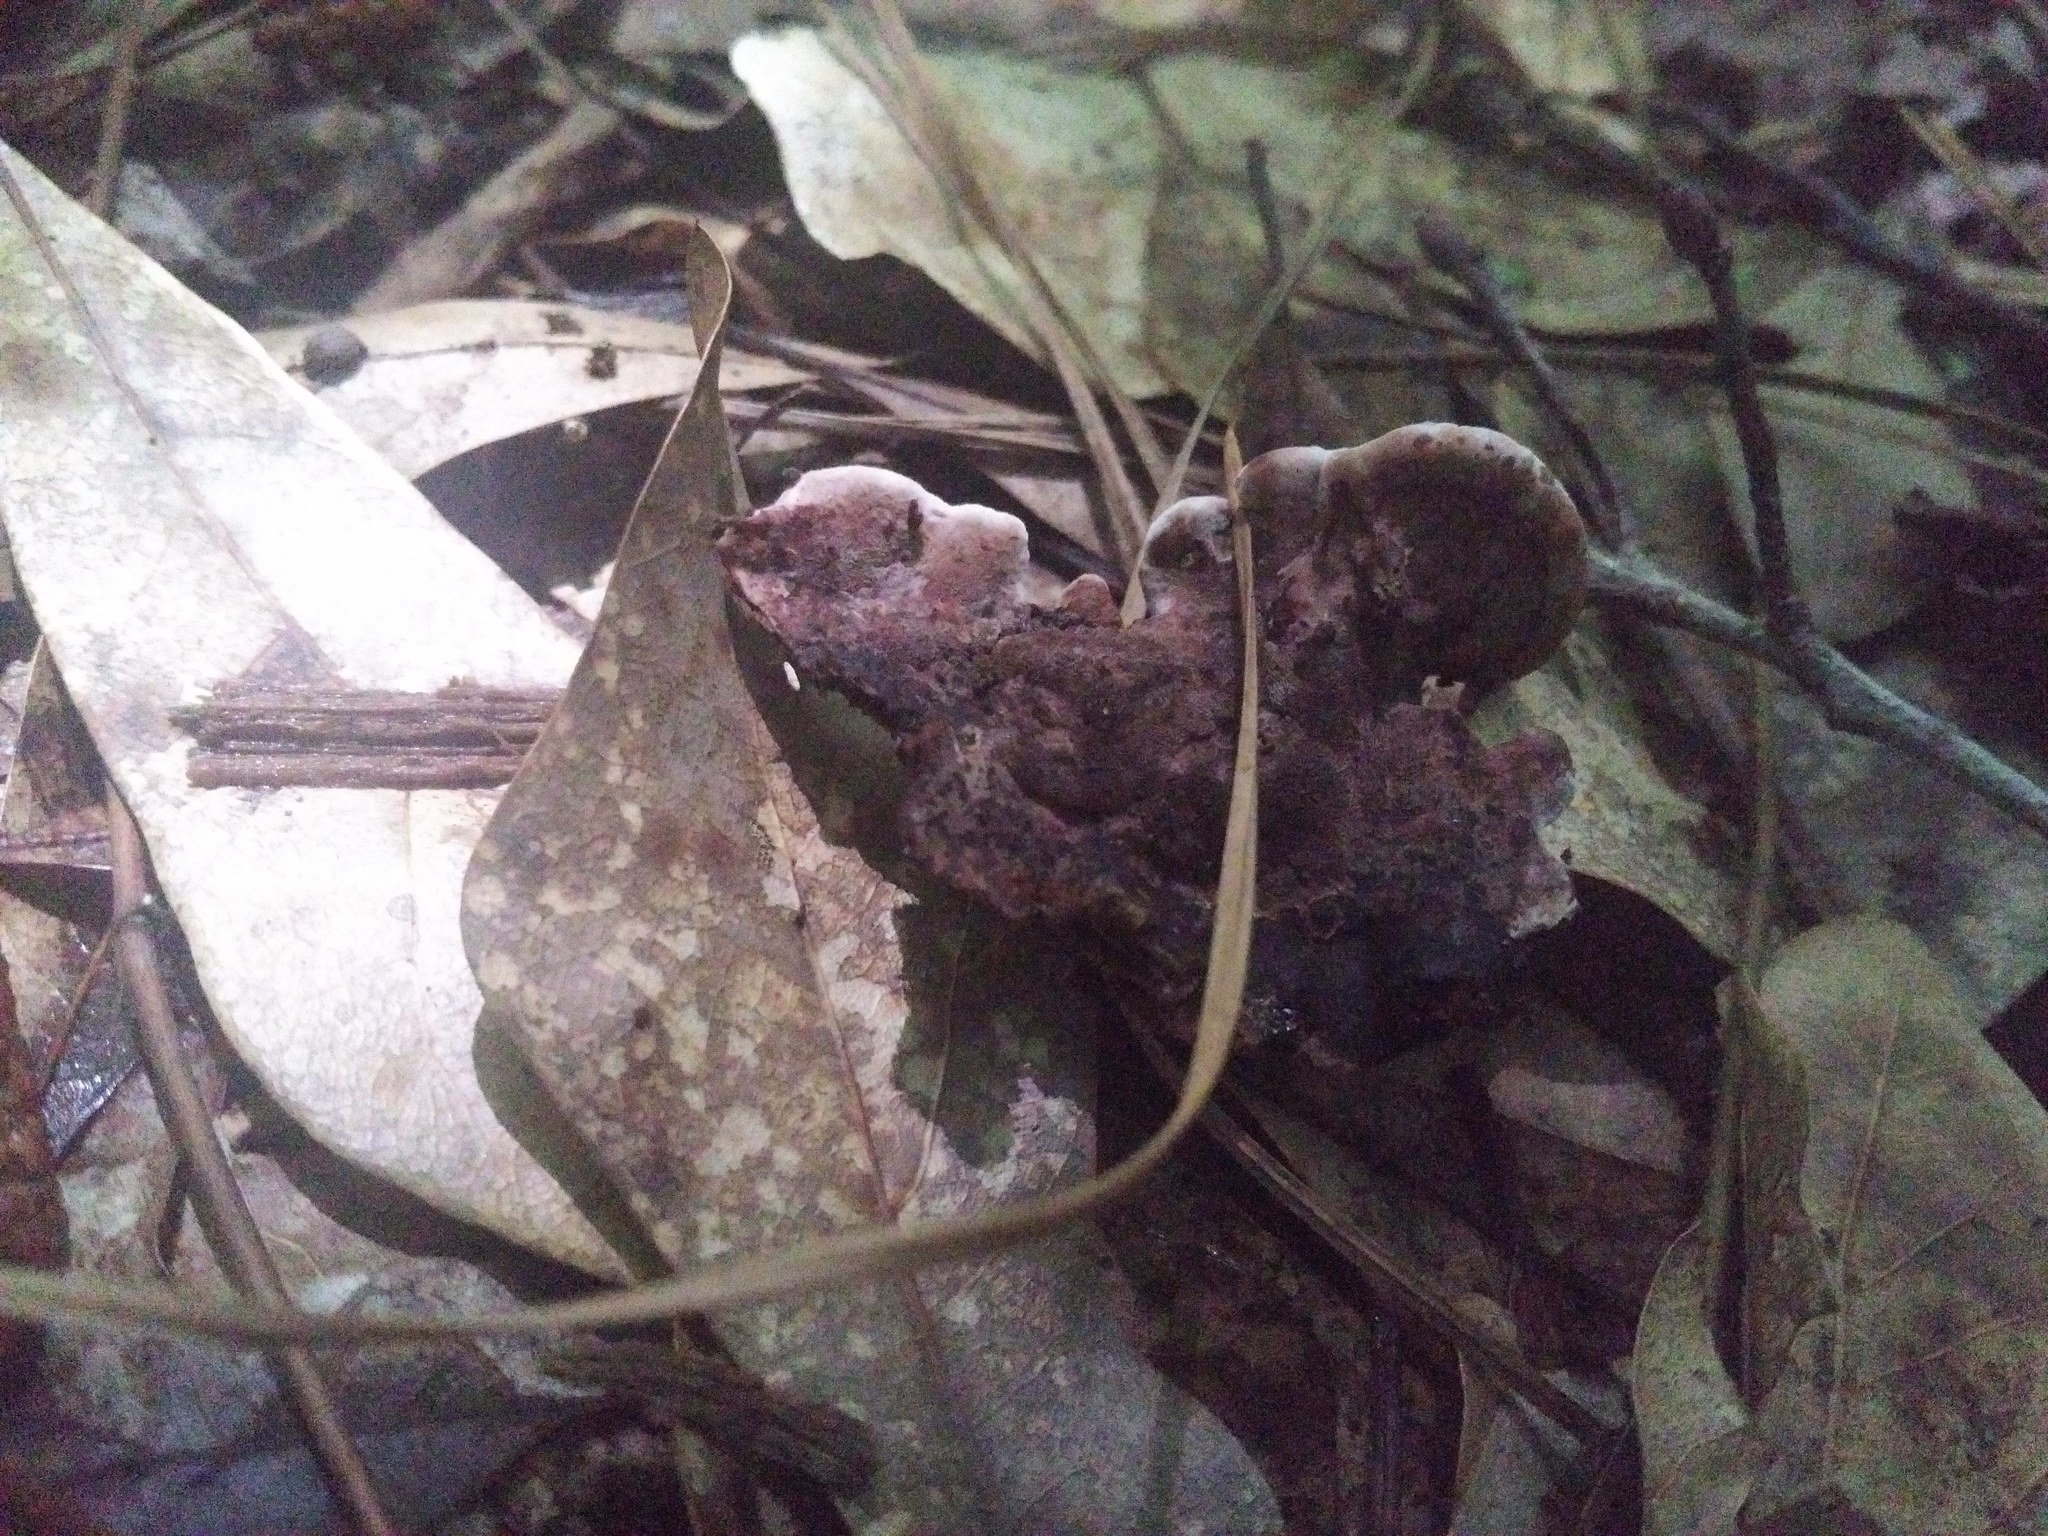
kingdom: Fungi
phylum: Basidiomycota
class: Agaricomycetes
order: Polyporales
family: Steccherinaceae
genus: Nigroporus
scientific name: Nigroporus vinosus
